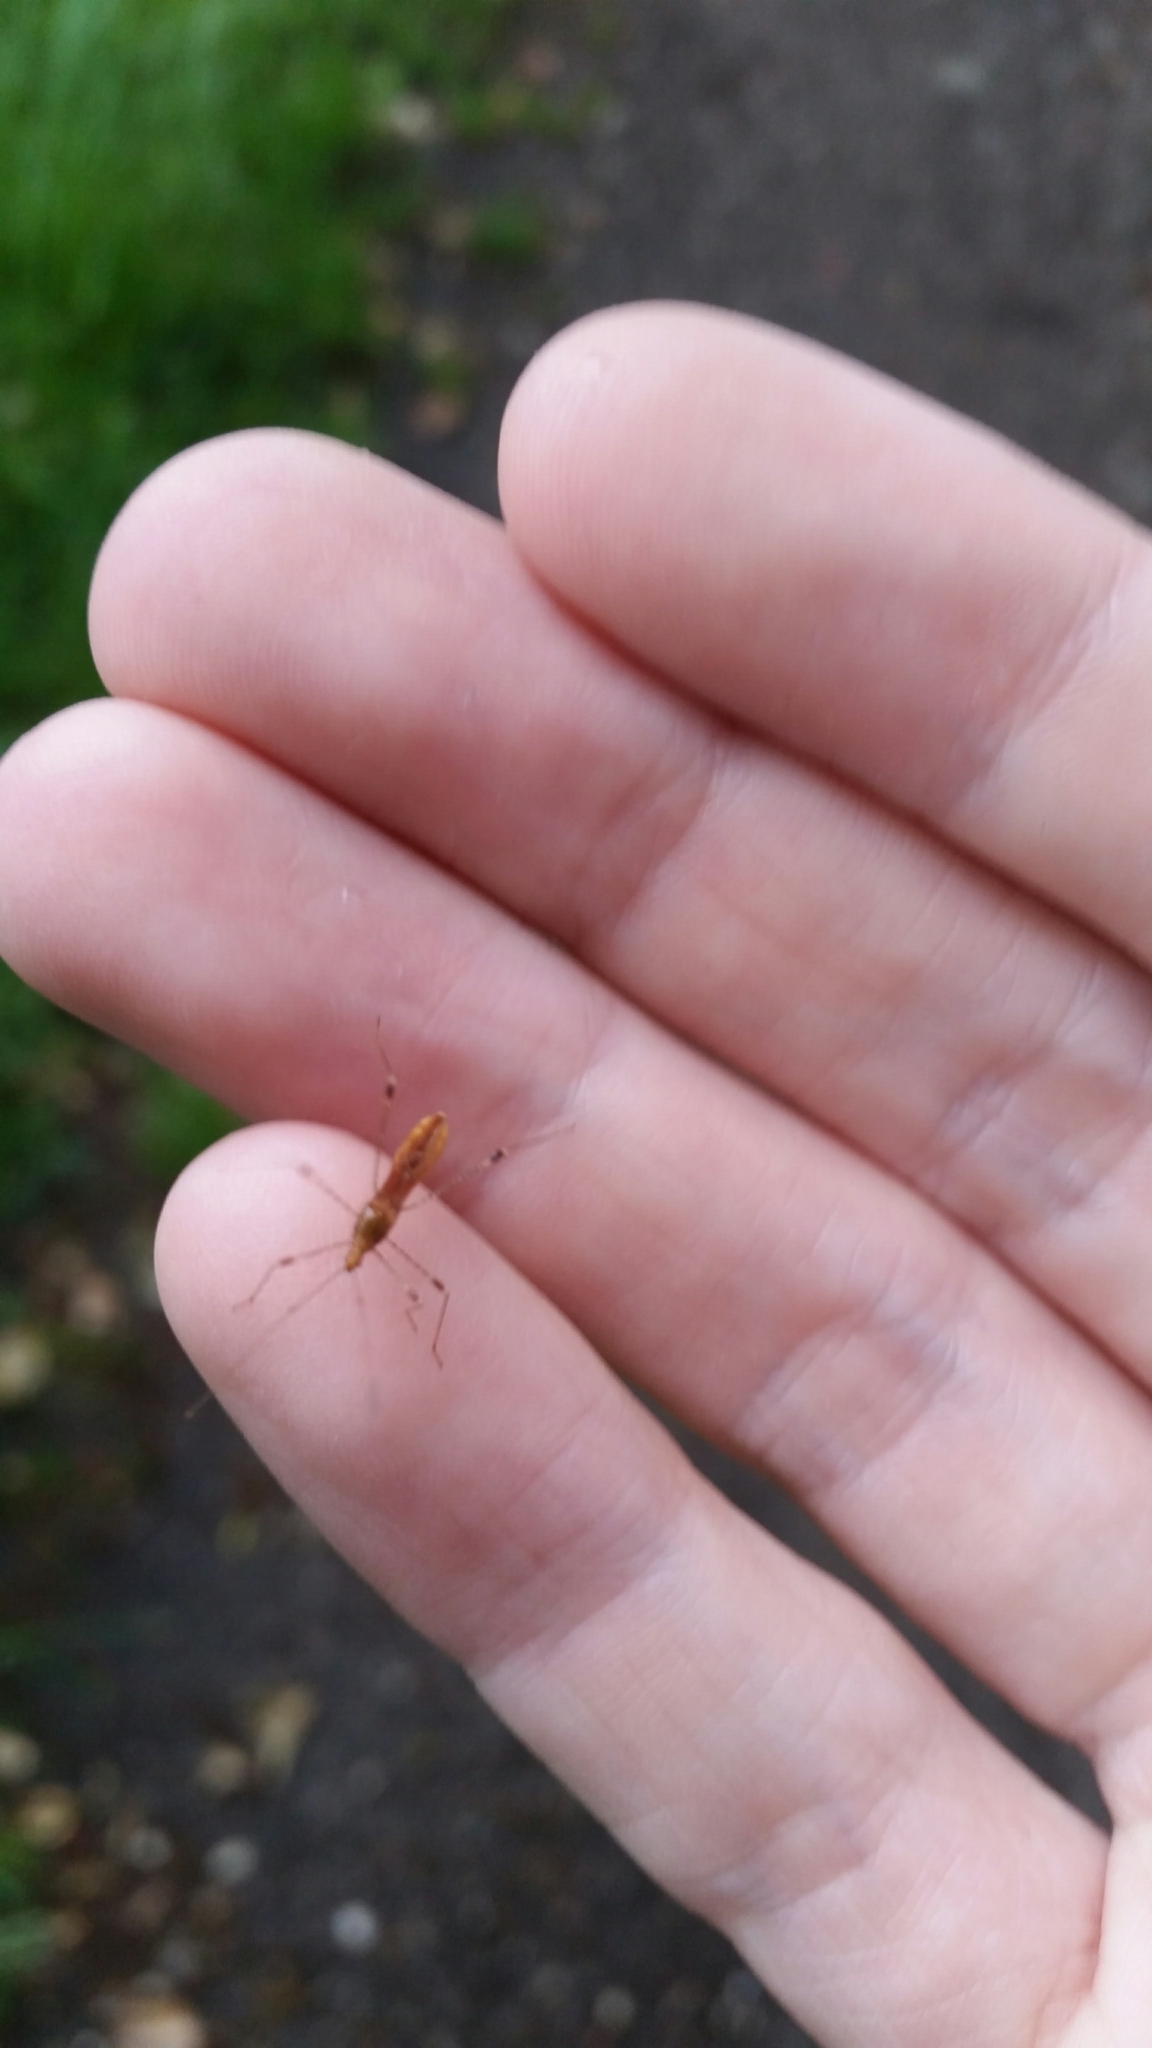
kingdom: Animalia
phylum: Arthropoda
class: Insecta
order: Hemiptera
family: Berytidae
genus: Metatropis
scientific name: Metatropis rufescens
